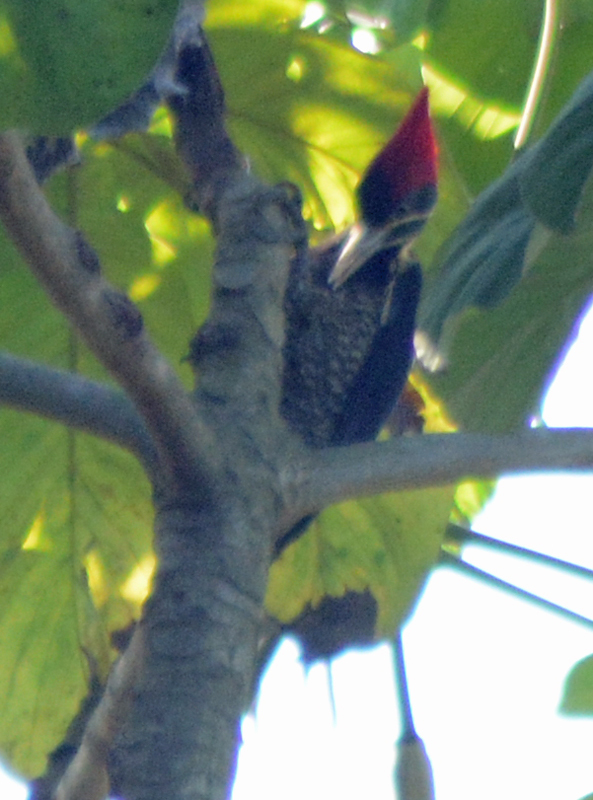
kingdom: Animalia
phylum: Chordata
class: Aves
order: Piciformes
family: Picidae
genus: Dryocopus
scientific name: Dryocopus lineatus
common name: Lineated woodpecker
